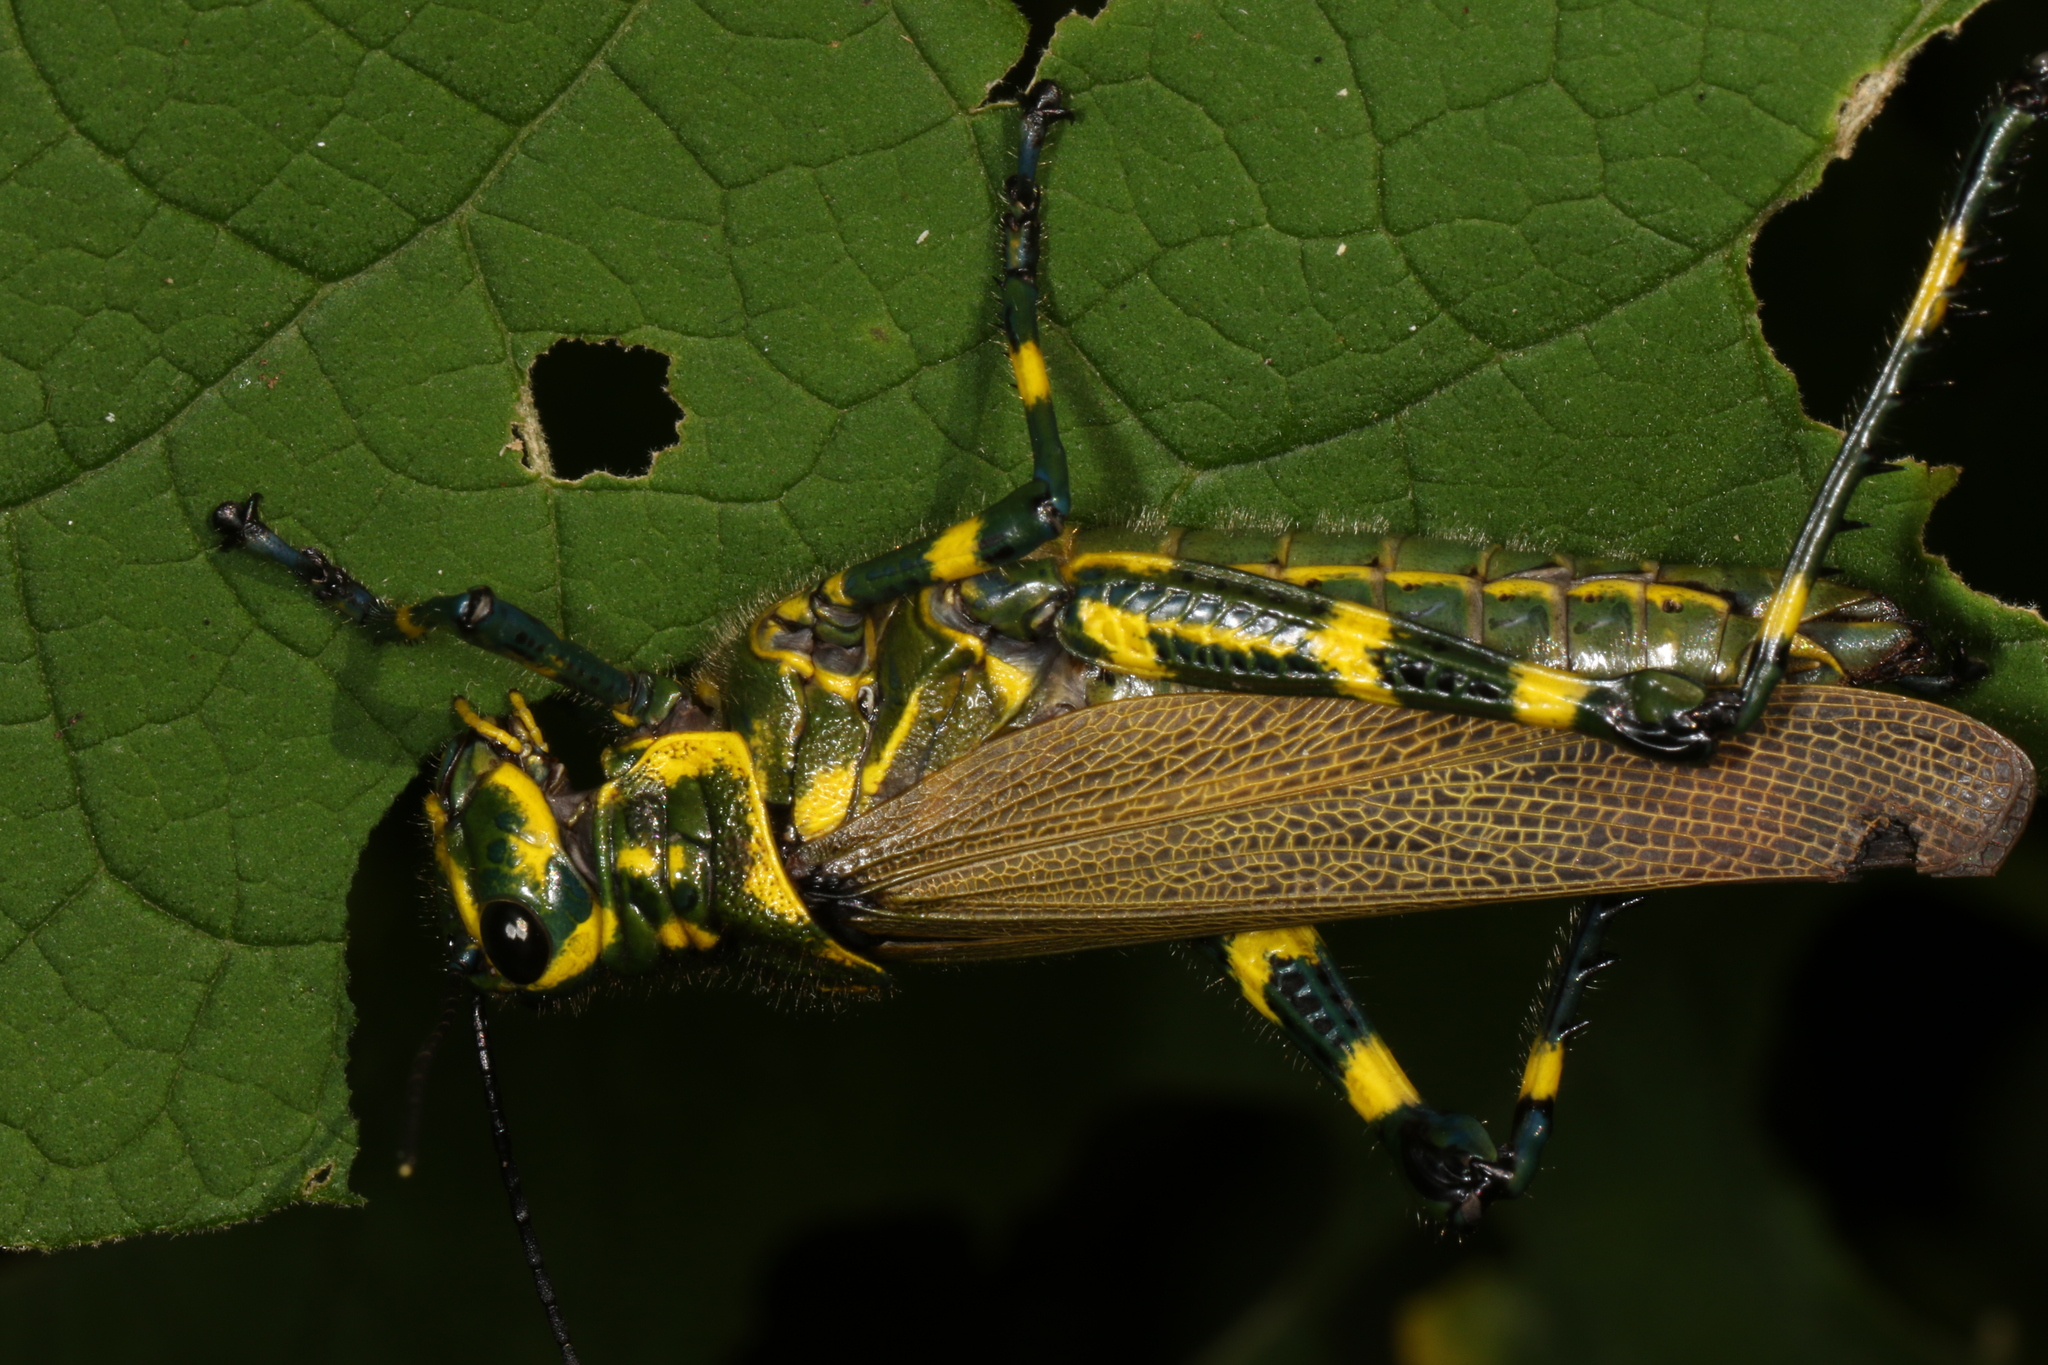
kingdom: Animalia
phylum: Arthropoda
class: Insecta
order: Orthoptera
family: Romaleidae
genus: Chromacris
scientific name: Chromacris speciosa
